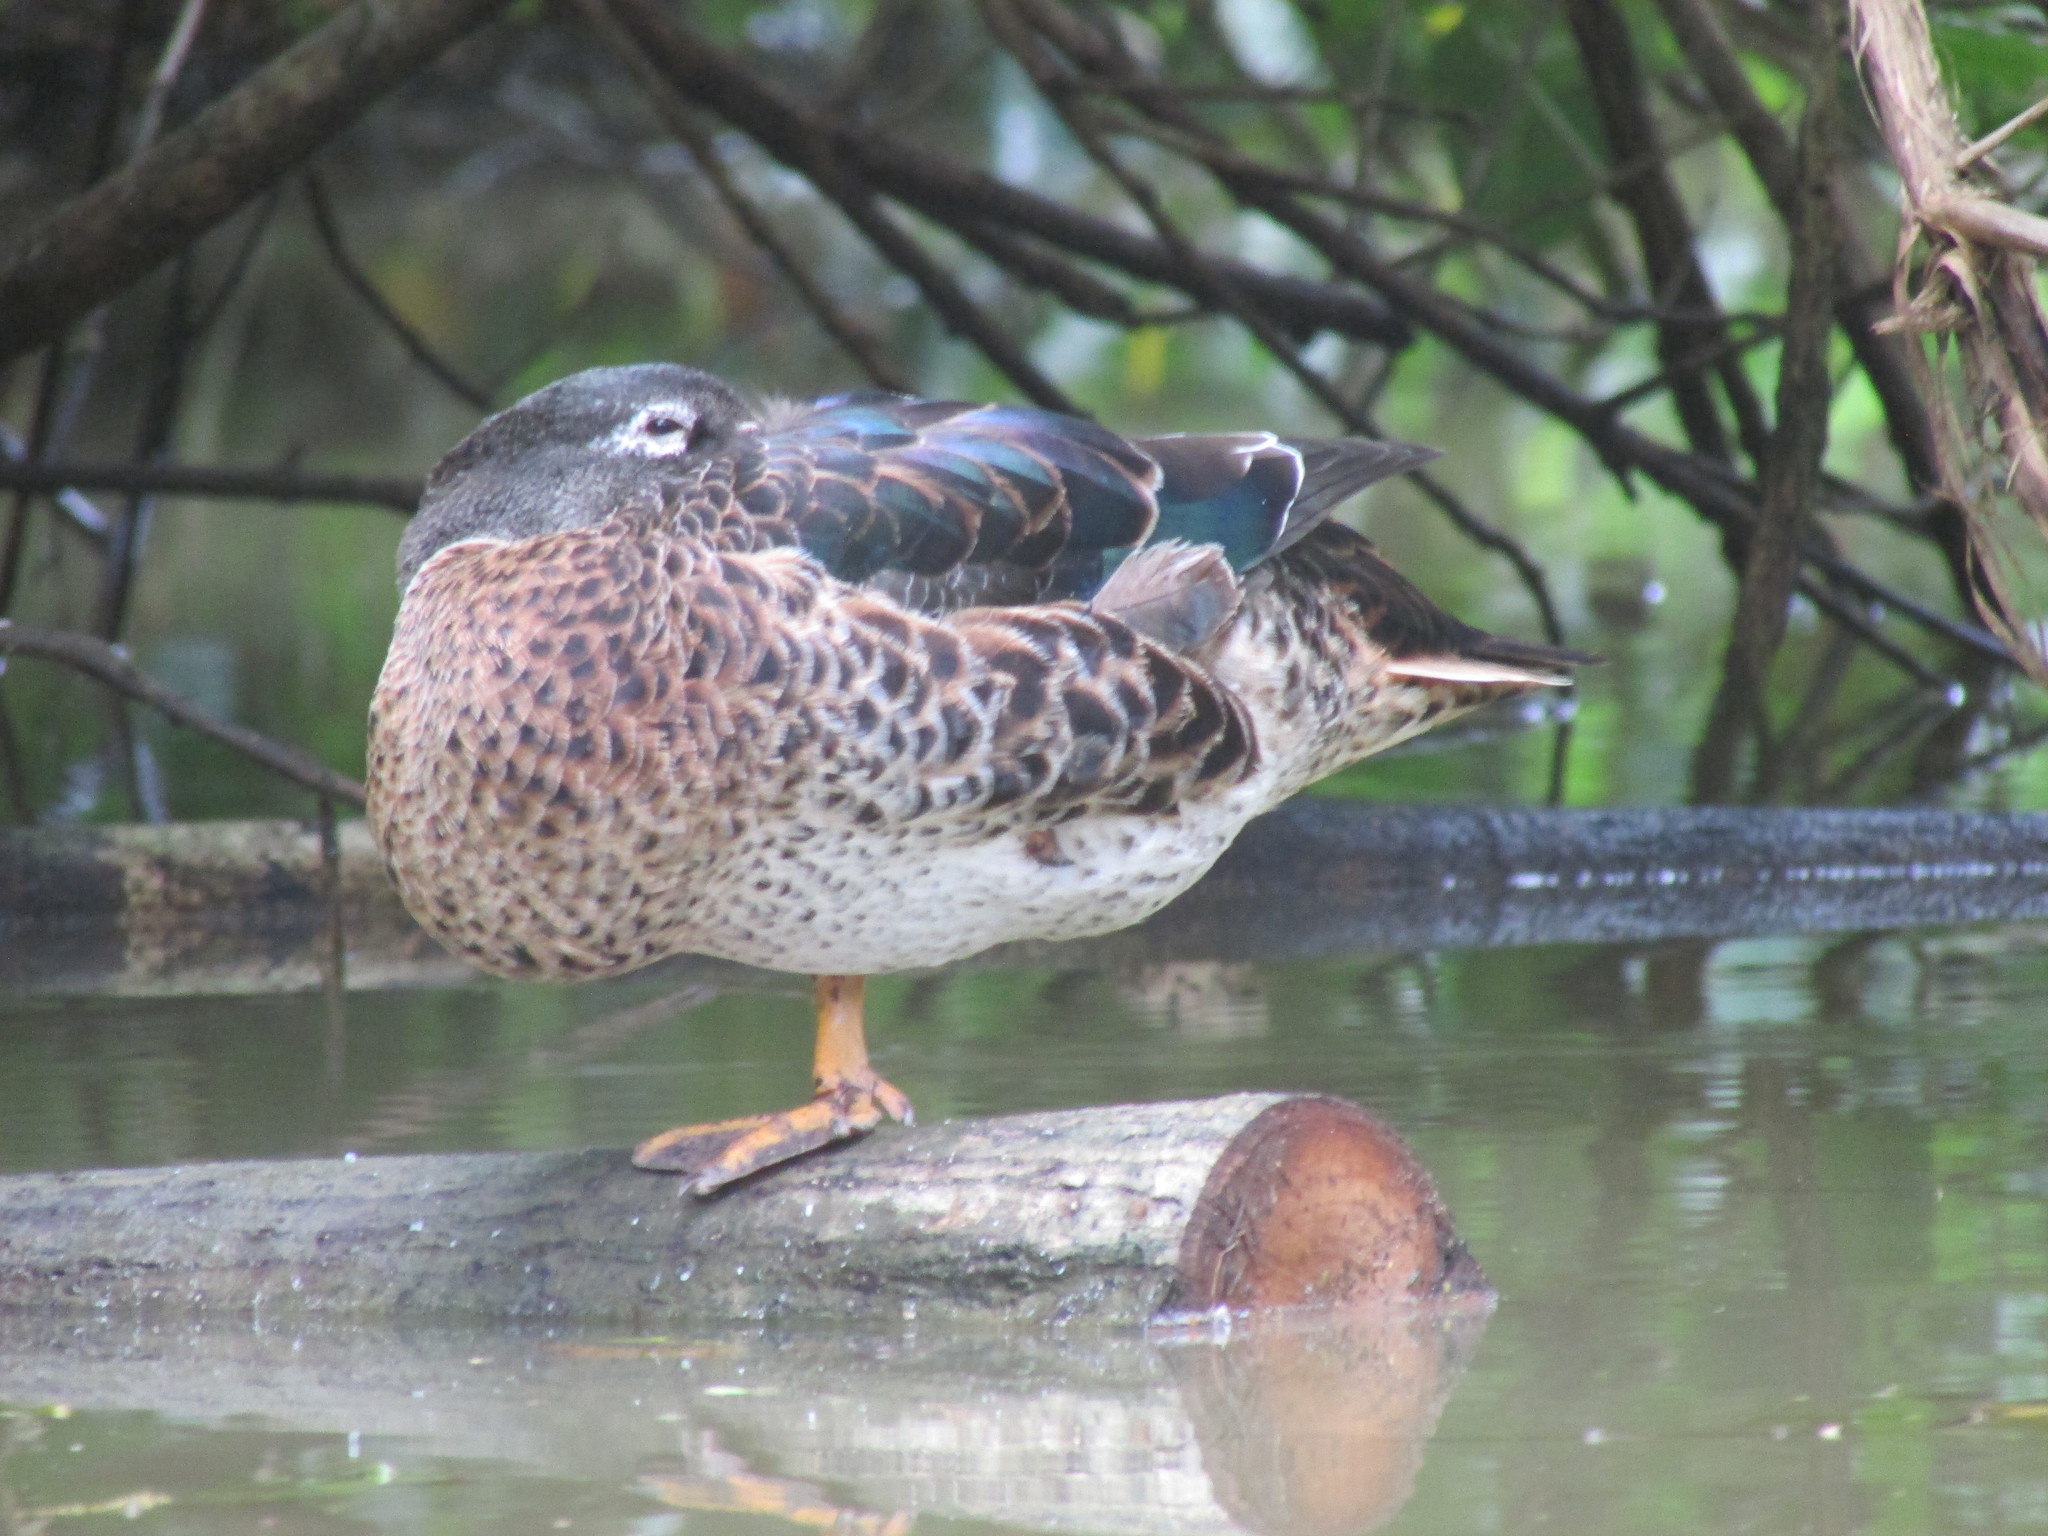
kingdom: Animalia
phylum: Chordata
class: Aves
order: Anseriformes
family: Anatidae
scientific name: Anatidae
